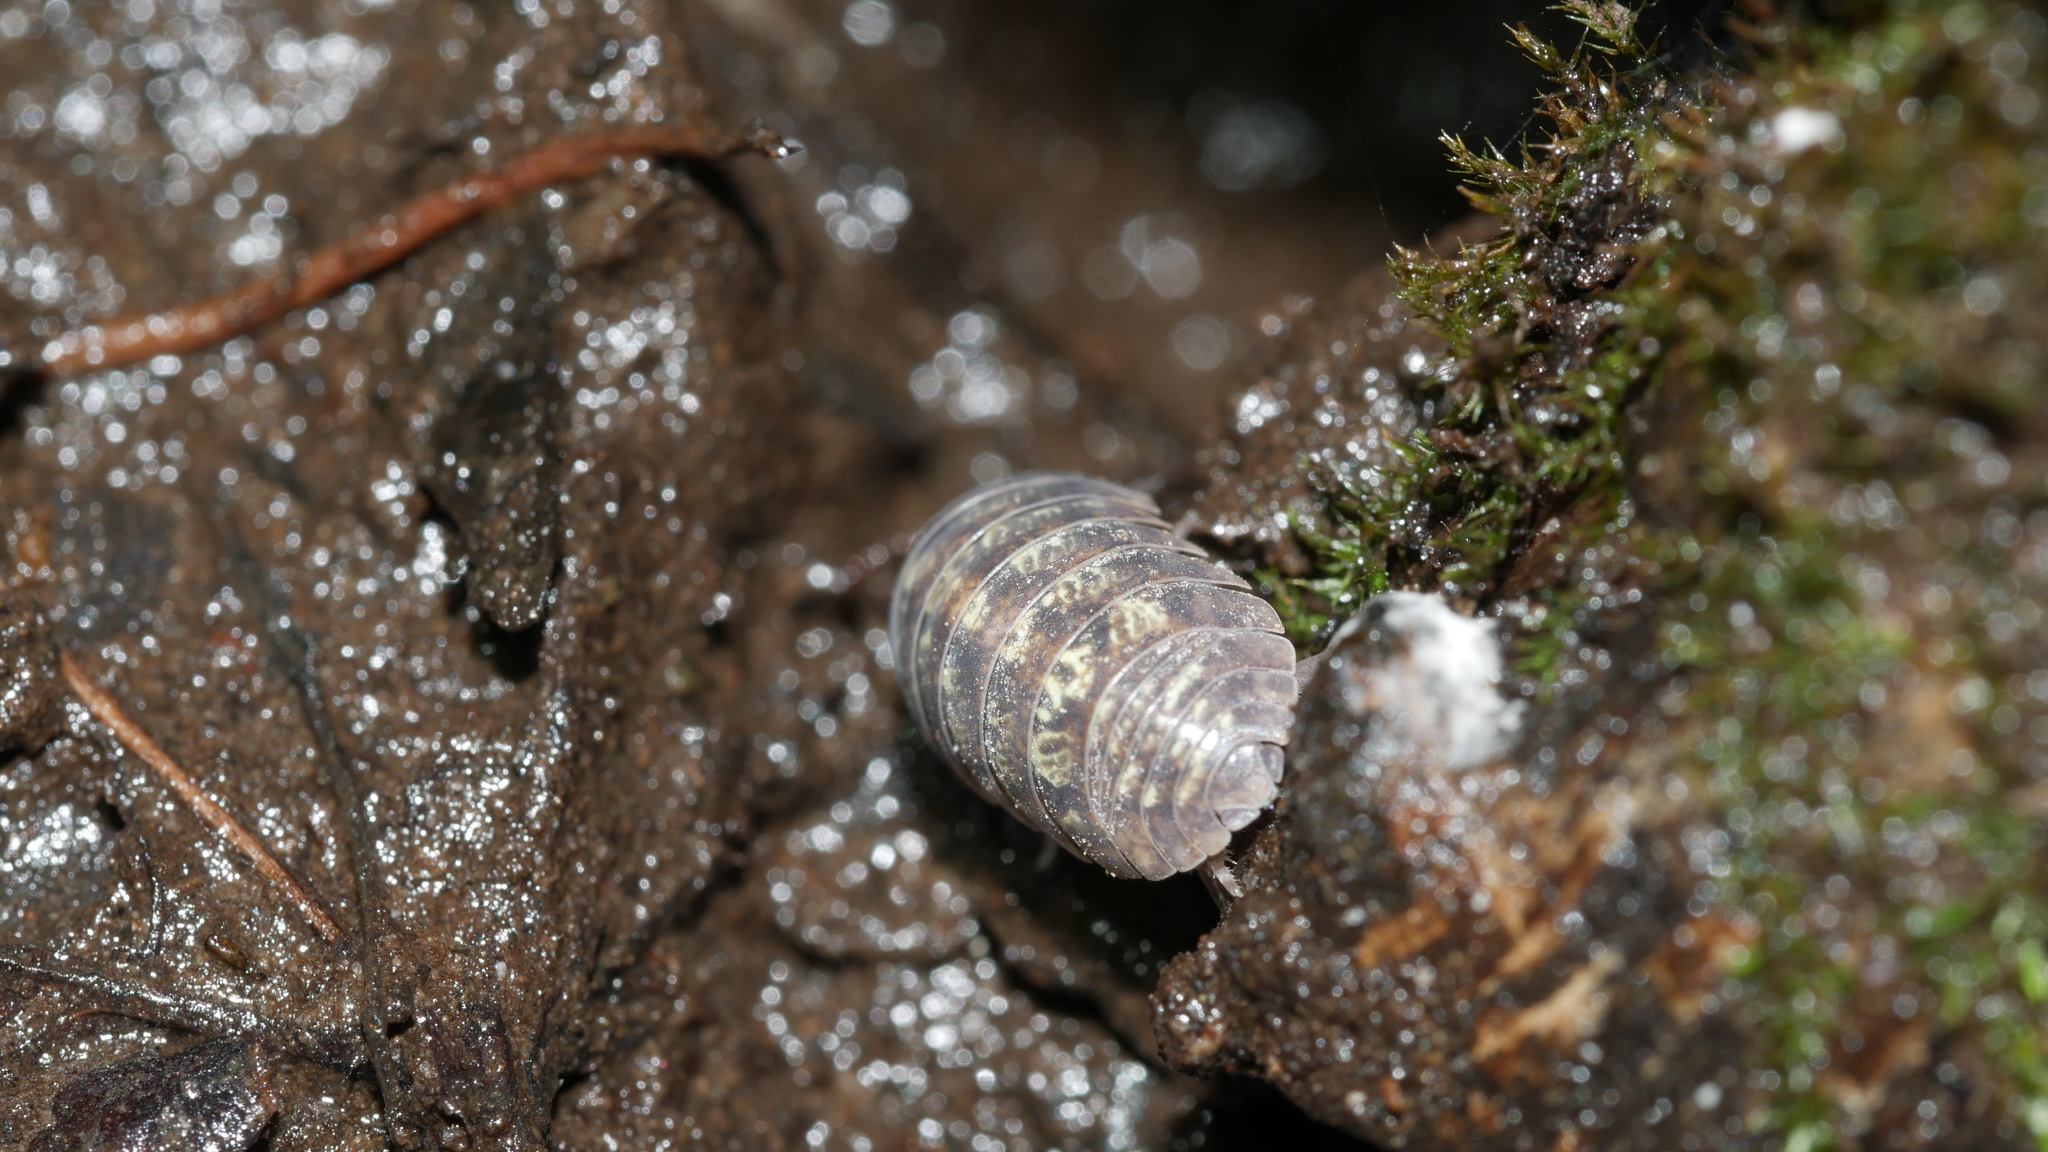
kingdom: Animalia
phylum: Arthropoda
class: Malacostraca
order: Isopoda
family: Armadillidiidae
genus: Armadillidium
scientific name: Armadillidium vulgare
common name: Common pill woodlouse
